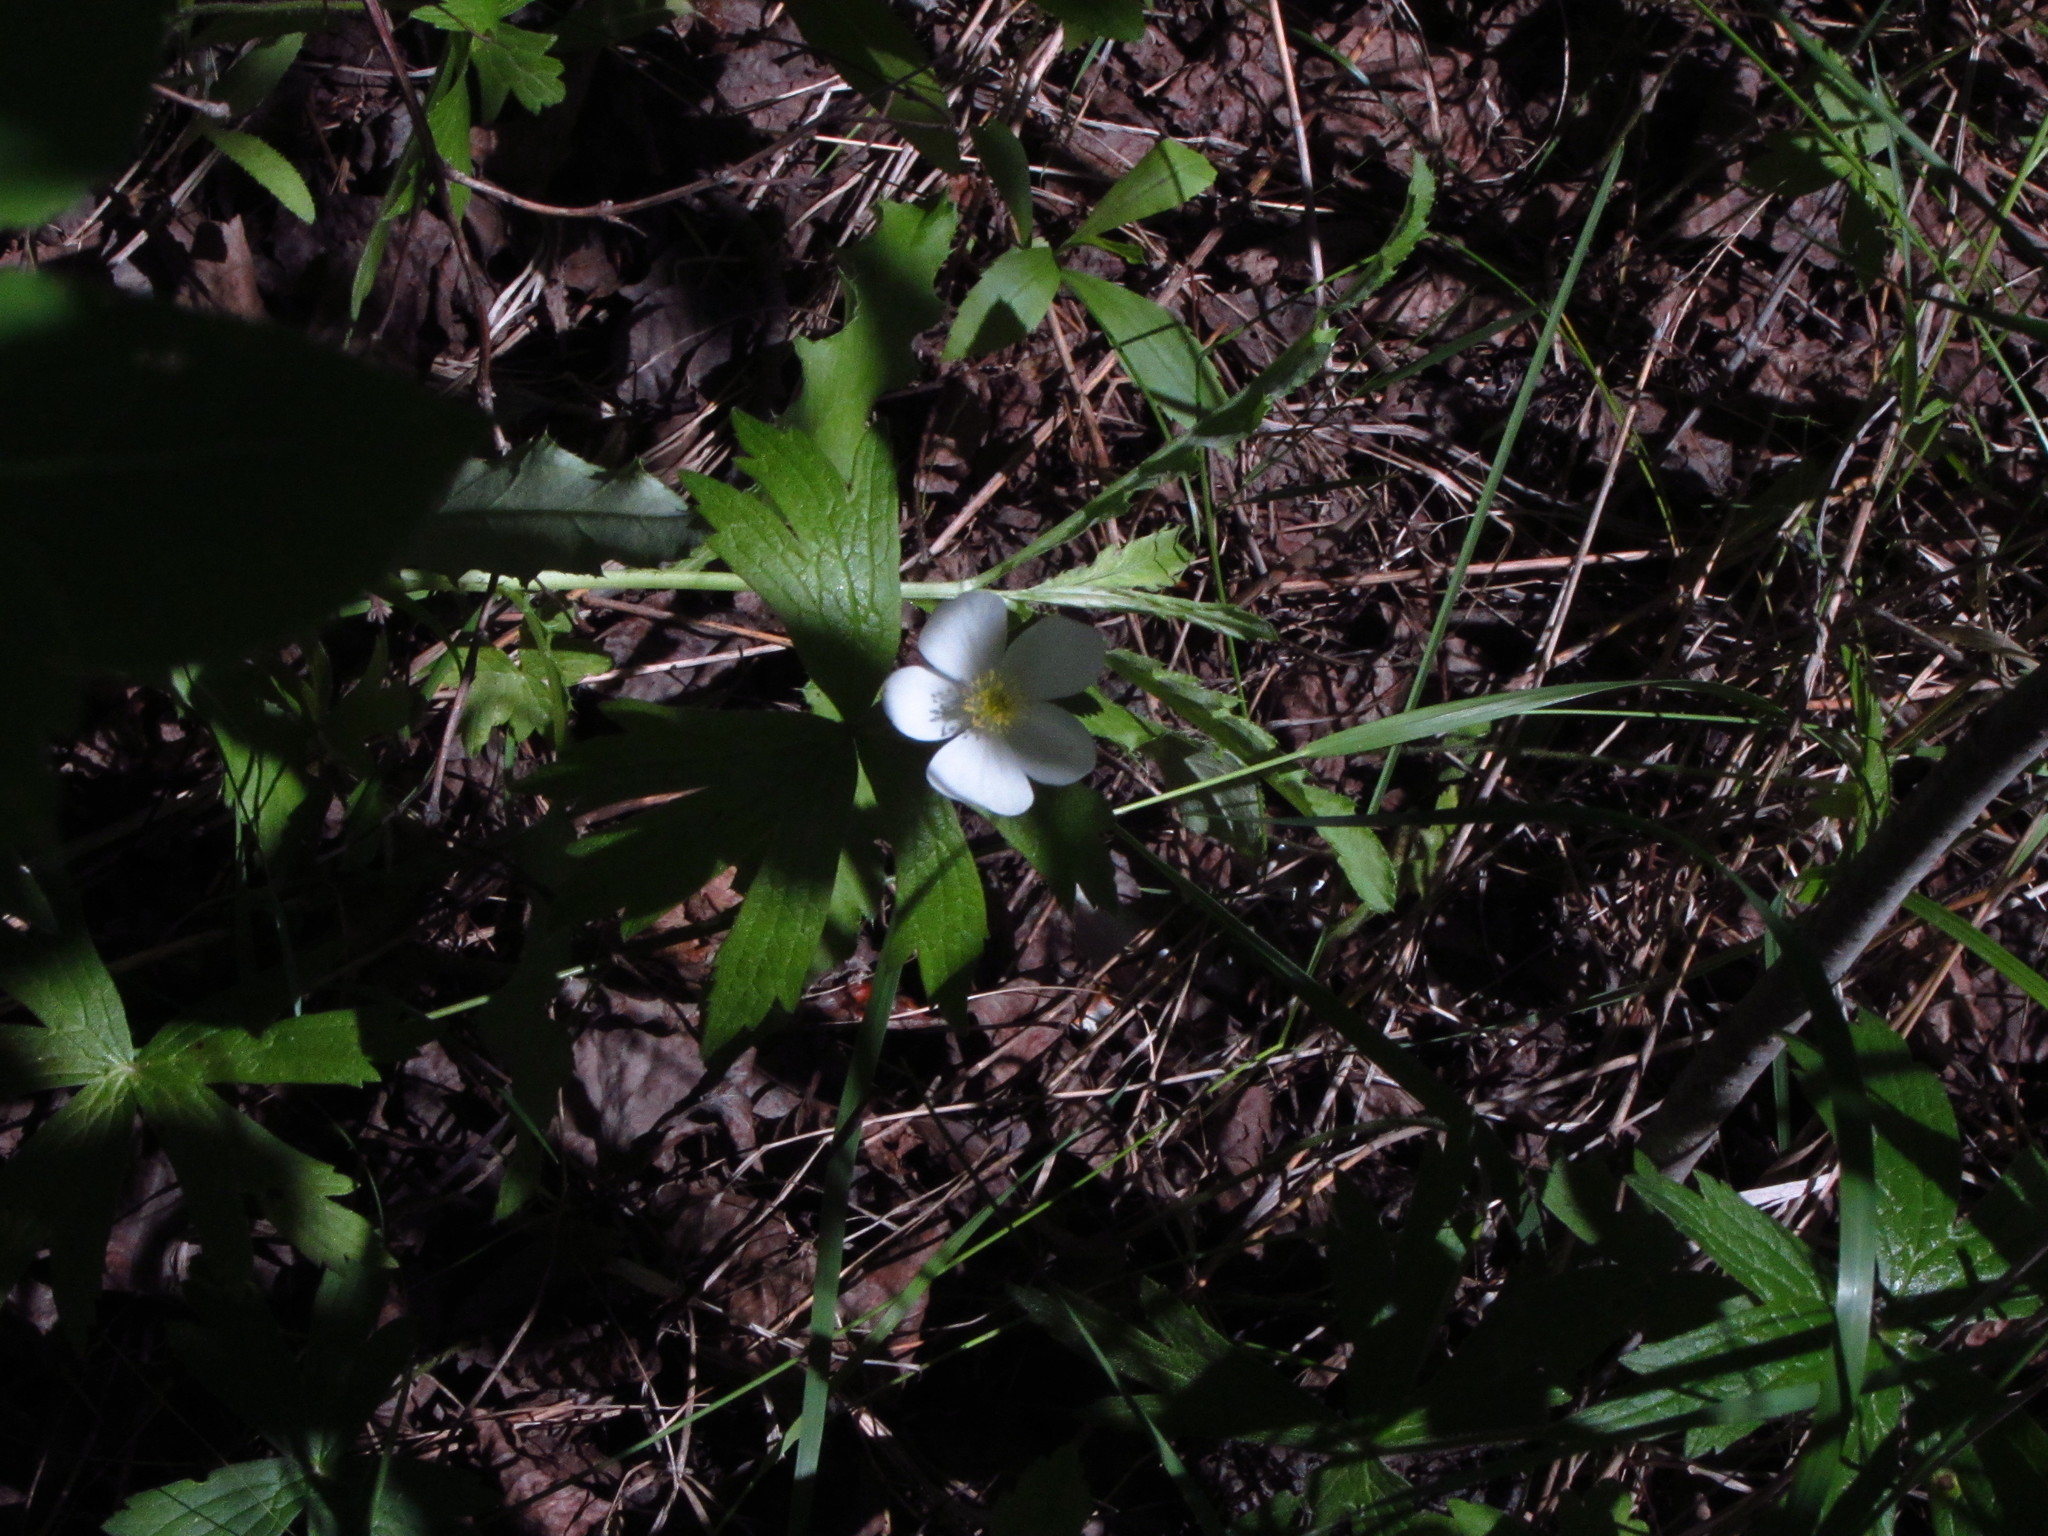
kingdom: Plantae
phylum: Tracheophyta
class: Magnoliopsida
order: Ranunculales
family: Ranunculaceae
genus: Anemonastrum
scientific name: Anemonastrum canadense
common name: Canada anemone
